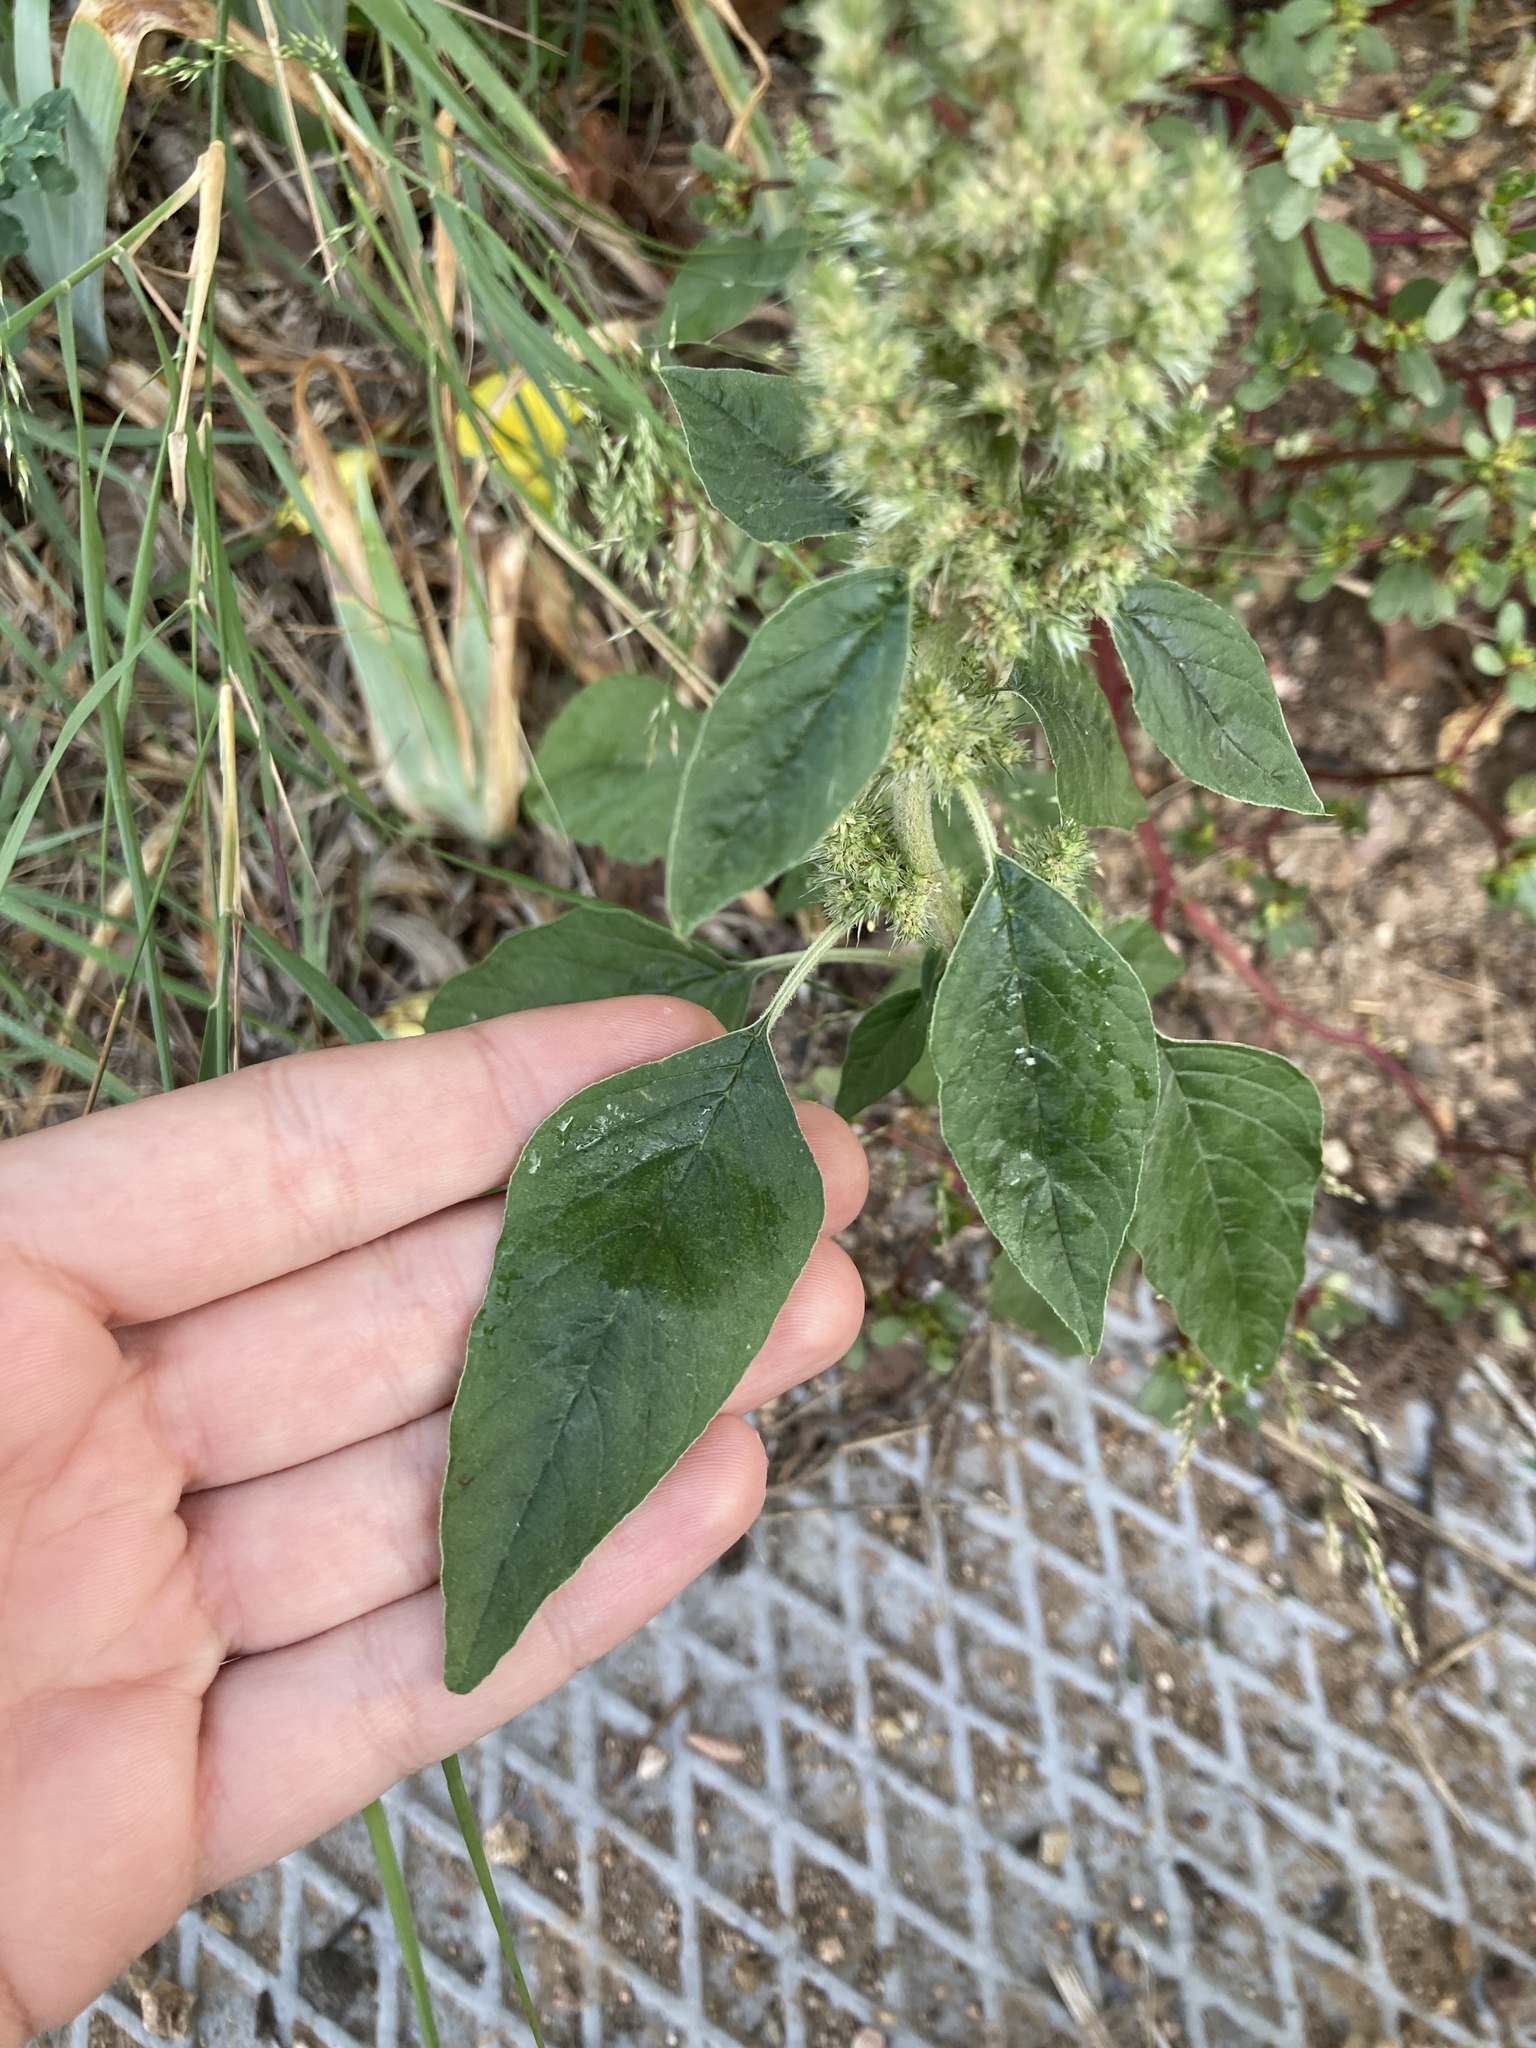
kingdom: Plantae
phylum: Tracheophyta
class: Magnoliopsida
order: Caryophyllales
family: Amaranthaceae
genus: Amaranthus
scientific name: Amaranthus retroflexus
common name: Redroot amaranth
